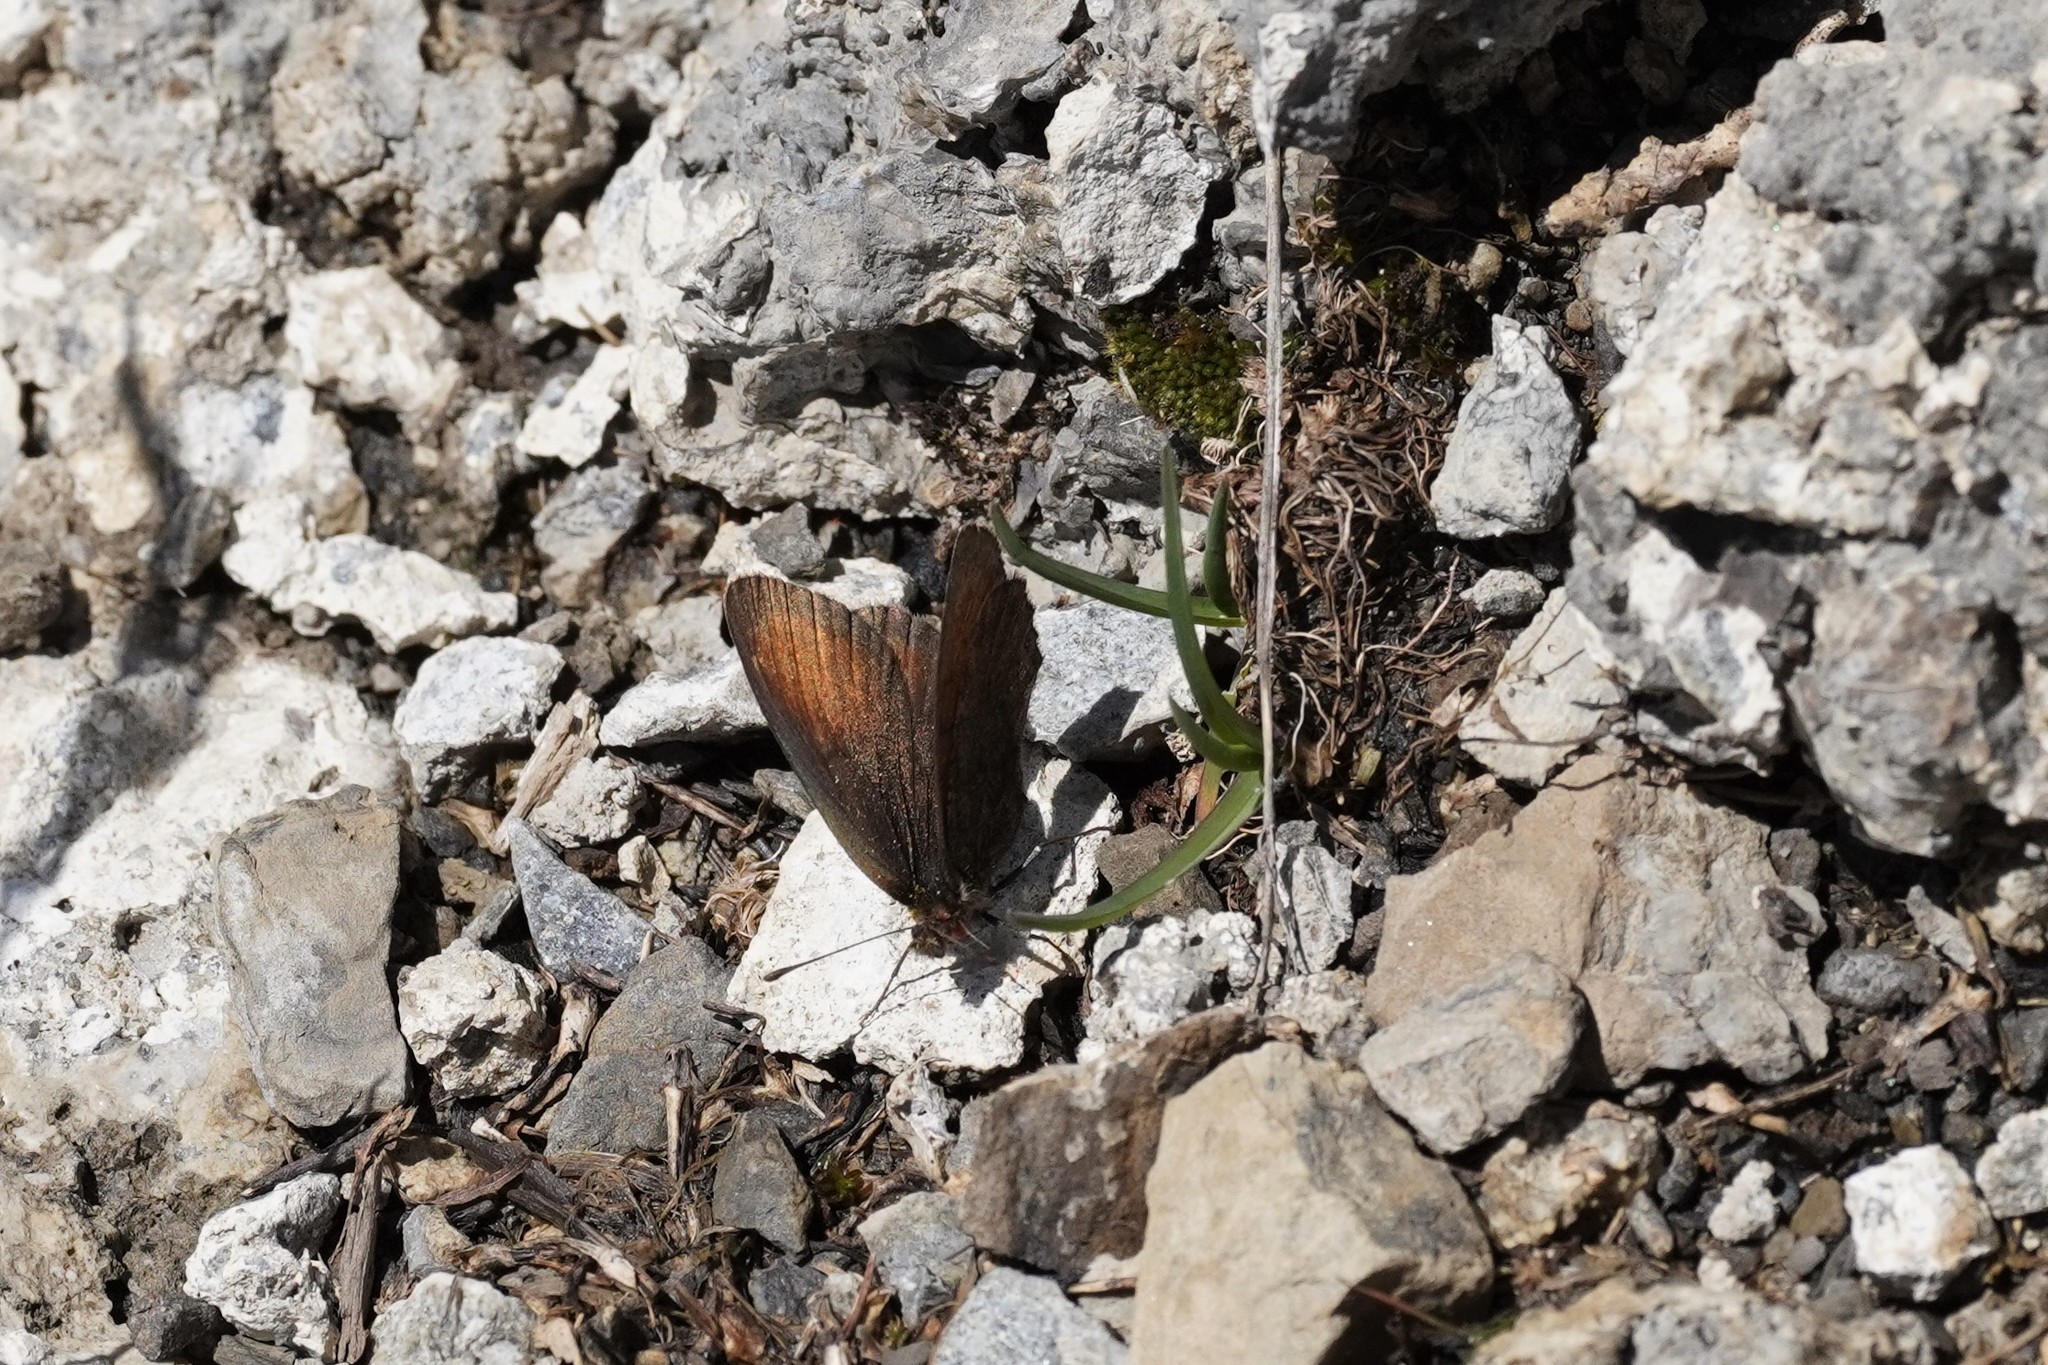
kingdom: Animalia
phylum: Arthropoda
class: Insecta
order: Lepidoptera
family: Nymphalidae
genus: Erebia
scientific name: Erebia gorge
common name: Silky ringlet
